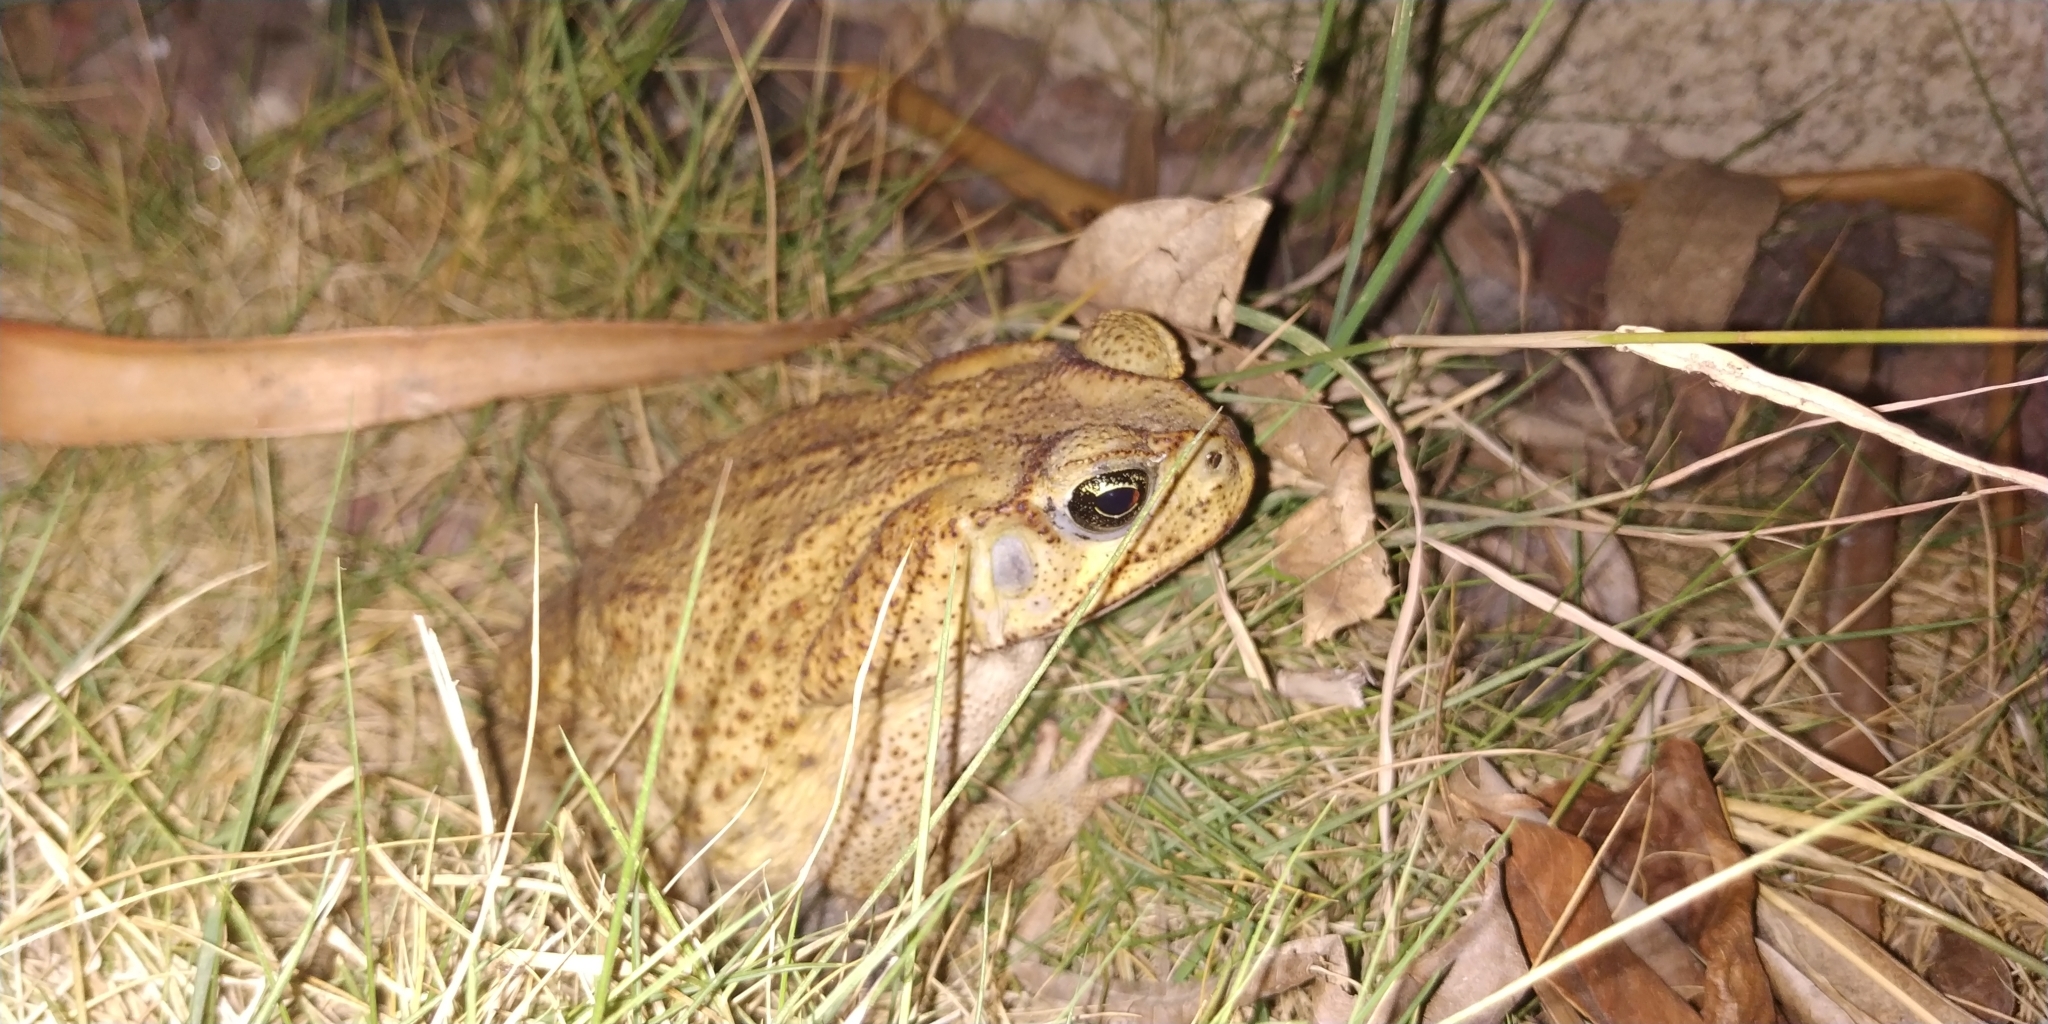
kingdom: Animalia
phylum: Chordata
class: Amphibia
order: Anura
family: Bufonidae
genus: Rhinella
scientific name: Rhinella horribilis
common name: Mesoamerican cane toad
